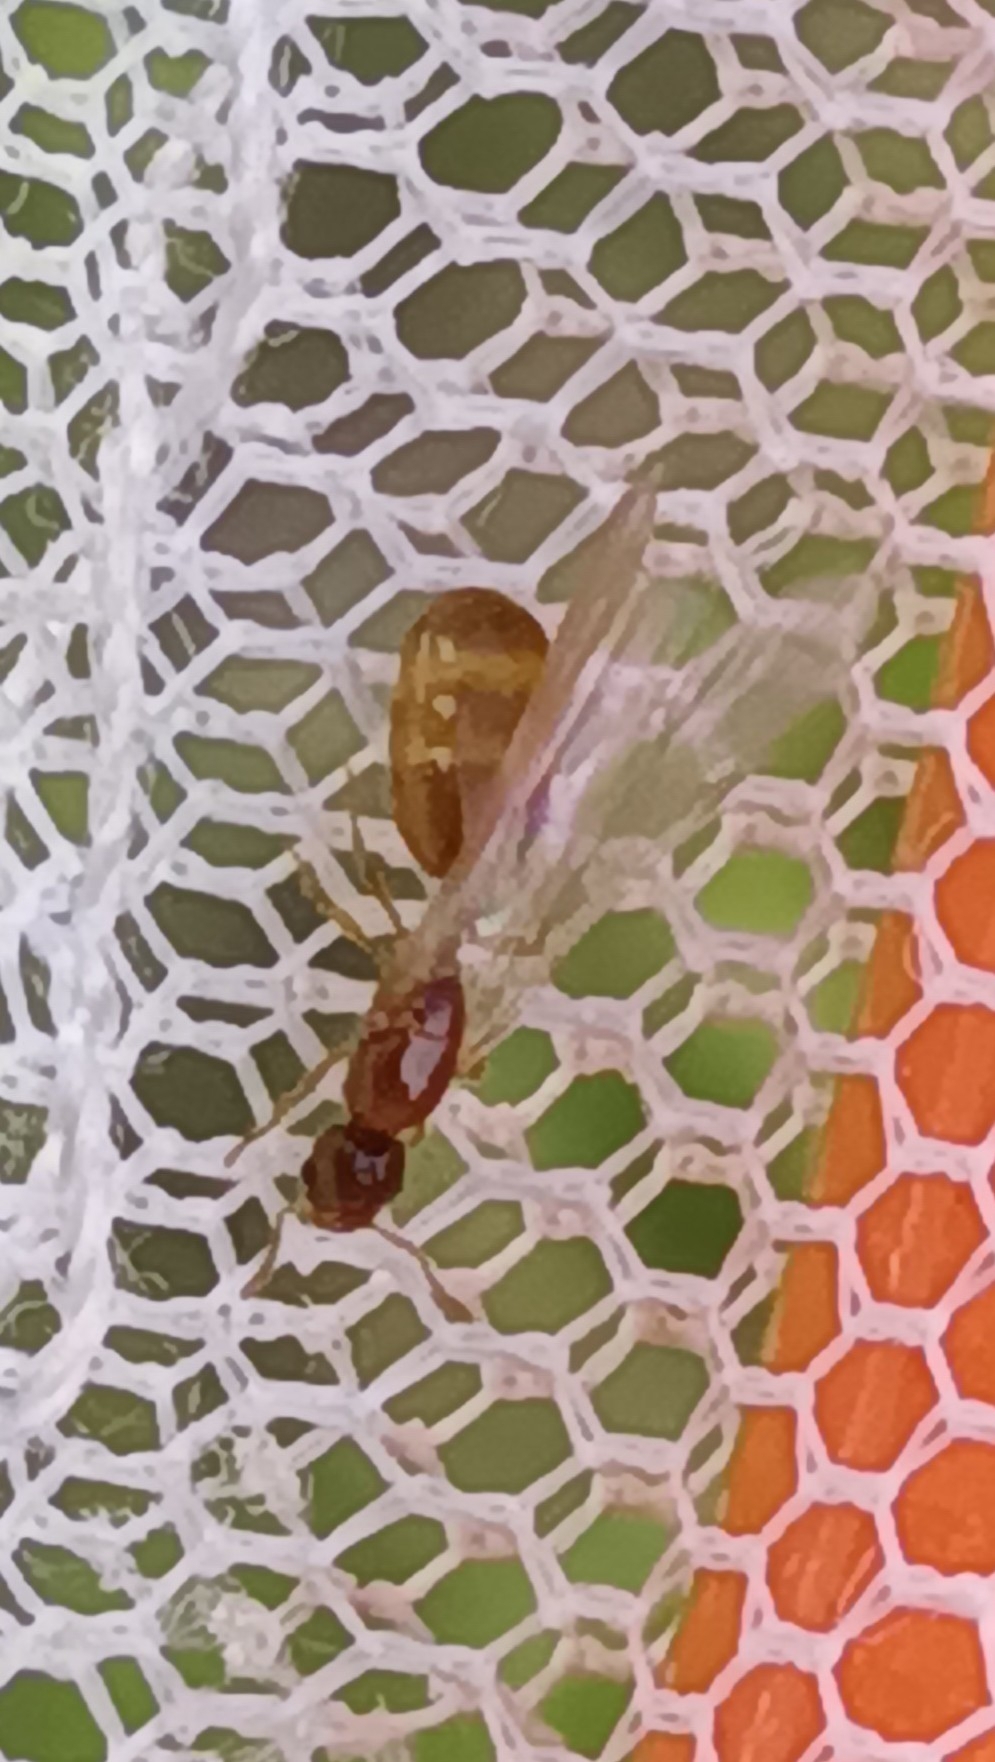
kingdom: Animalia
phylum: Arthropoda
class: Insecta
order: Hymenoptera
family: Formicidae
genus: Solenopsis
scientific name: Solenopsis molesta
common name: Thief ant
